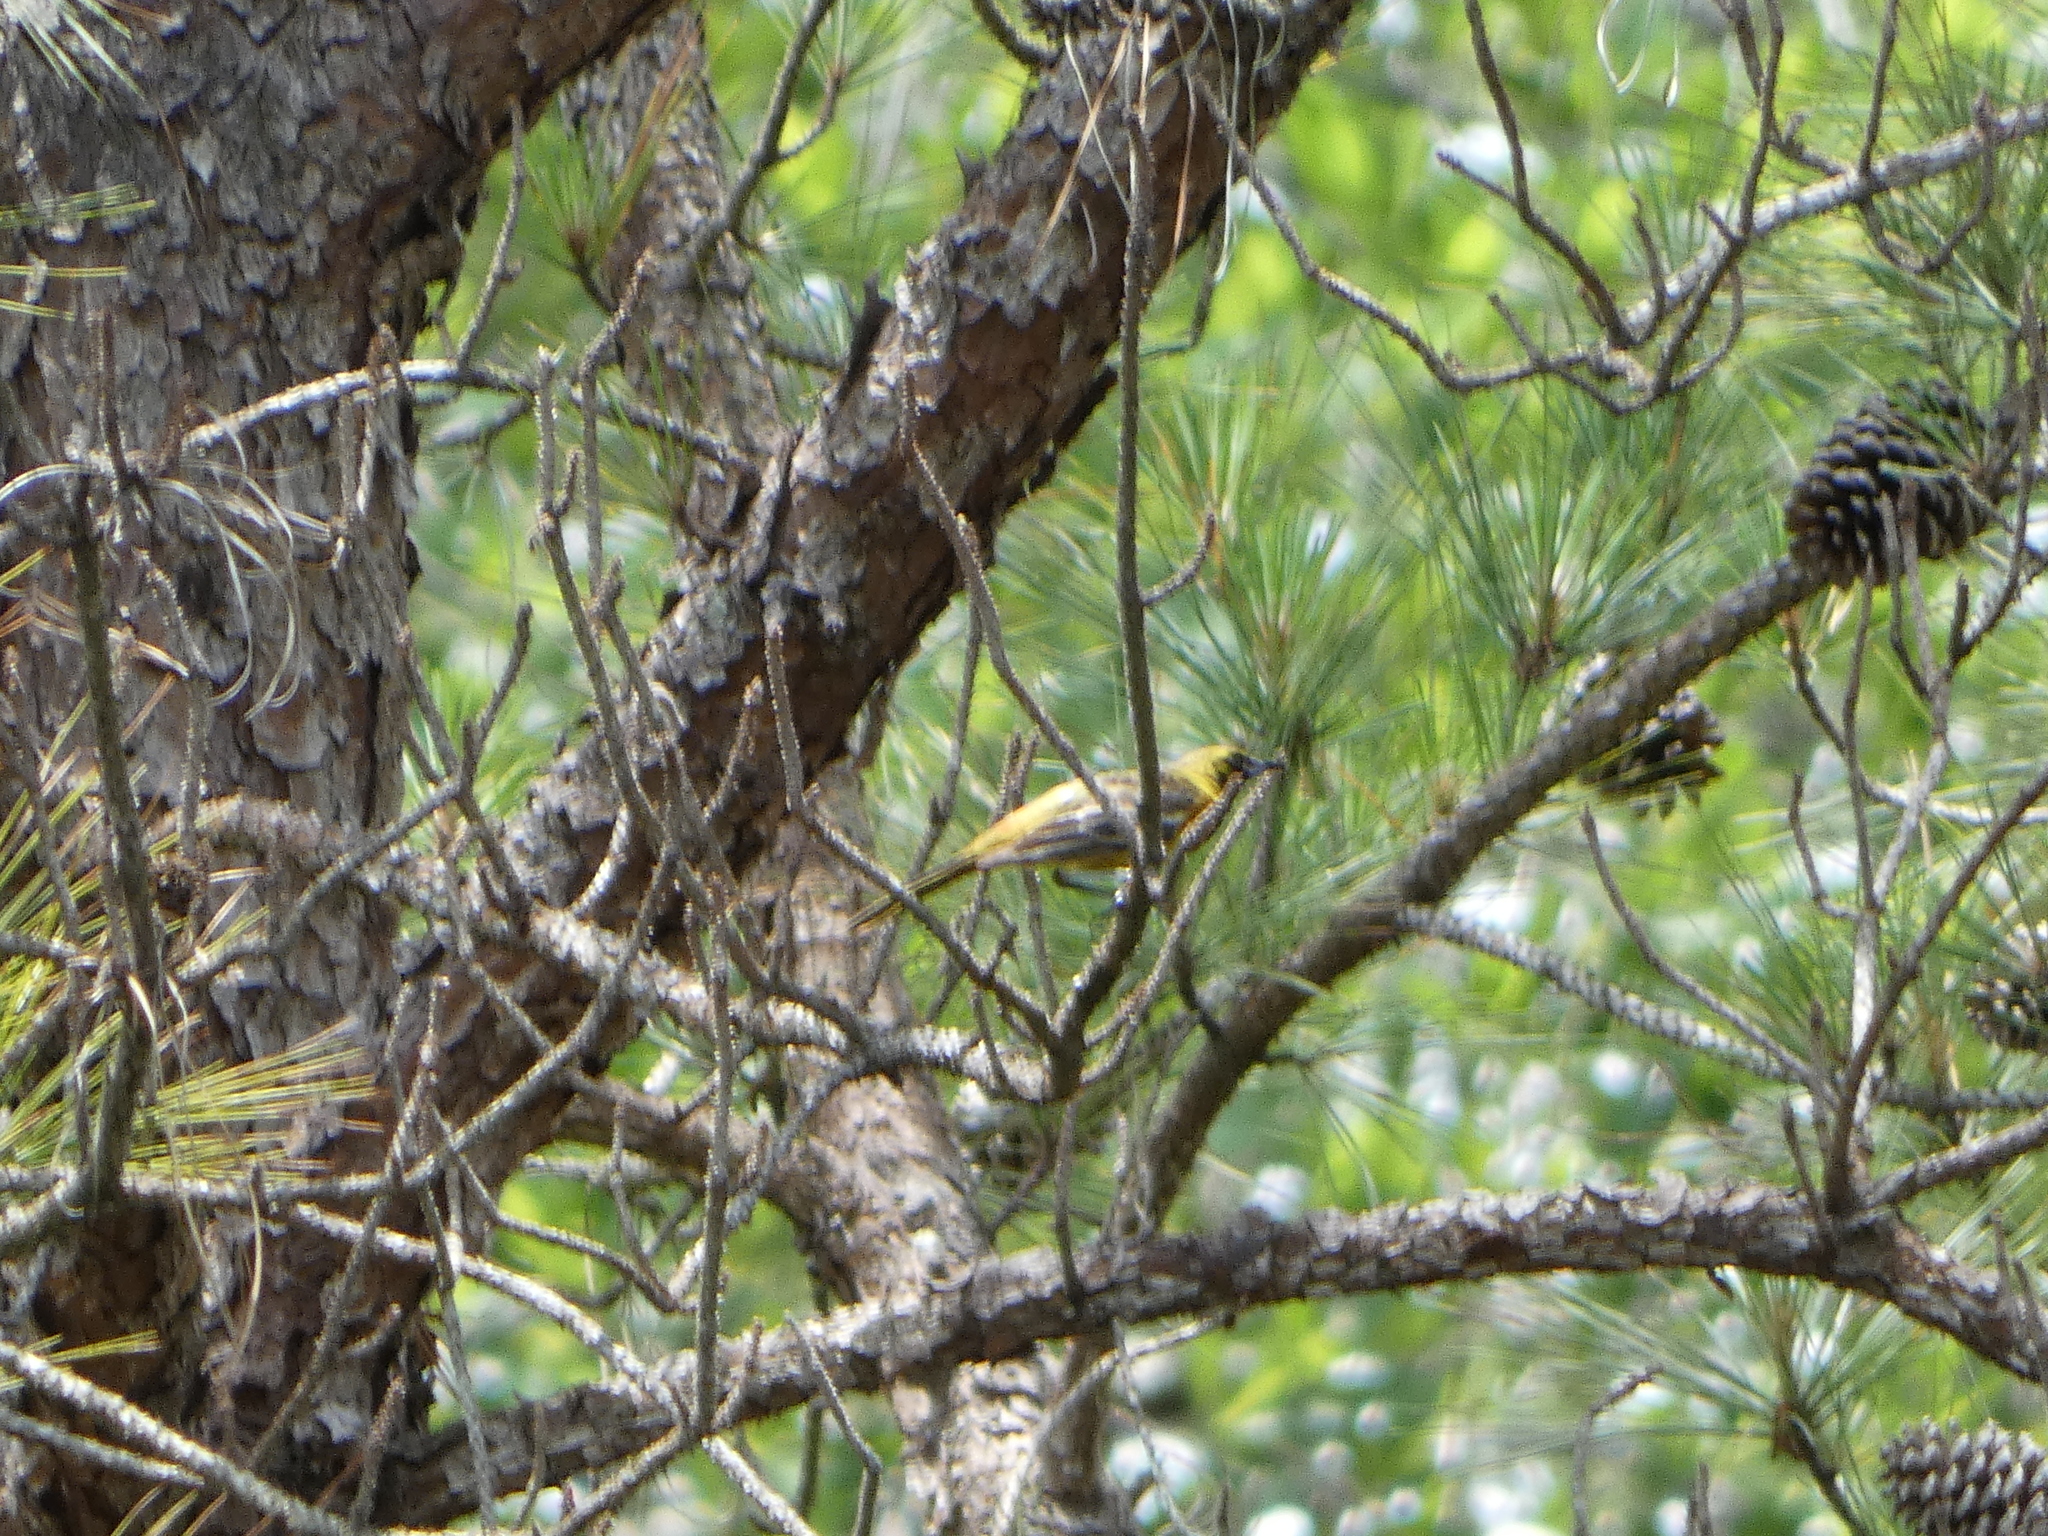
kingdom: Animalia
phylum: Chordata
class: Aves
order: Passeriformes
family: Icteridae
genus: Icterus
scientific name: Icterus spurius
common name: Orchard oriole
